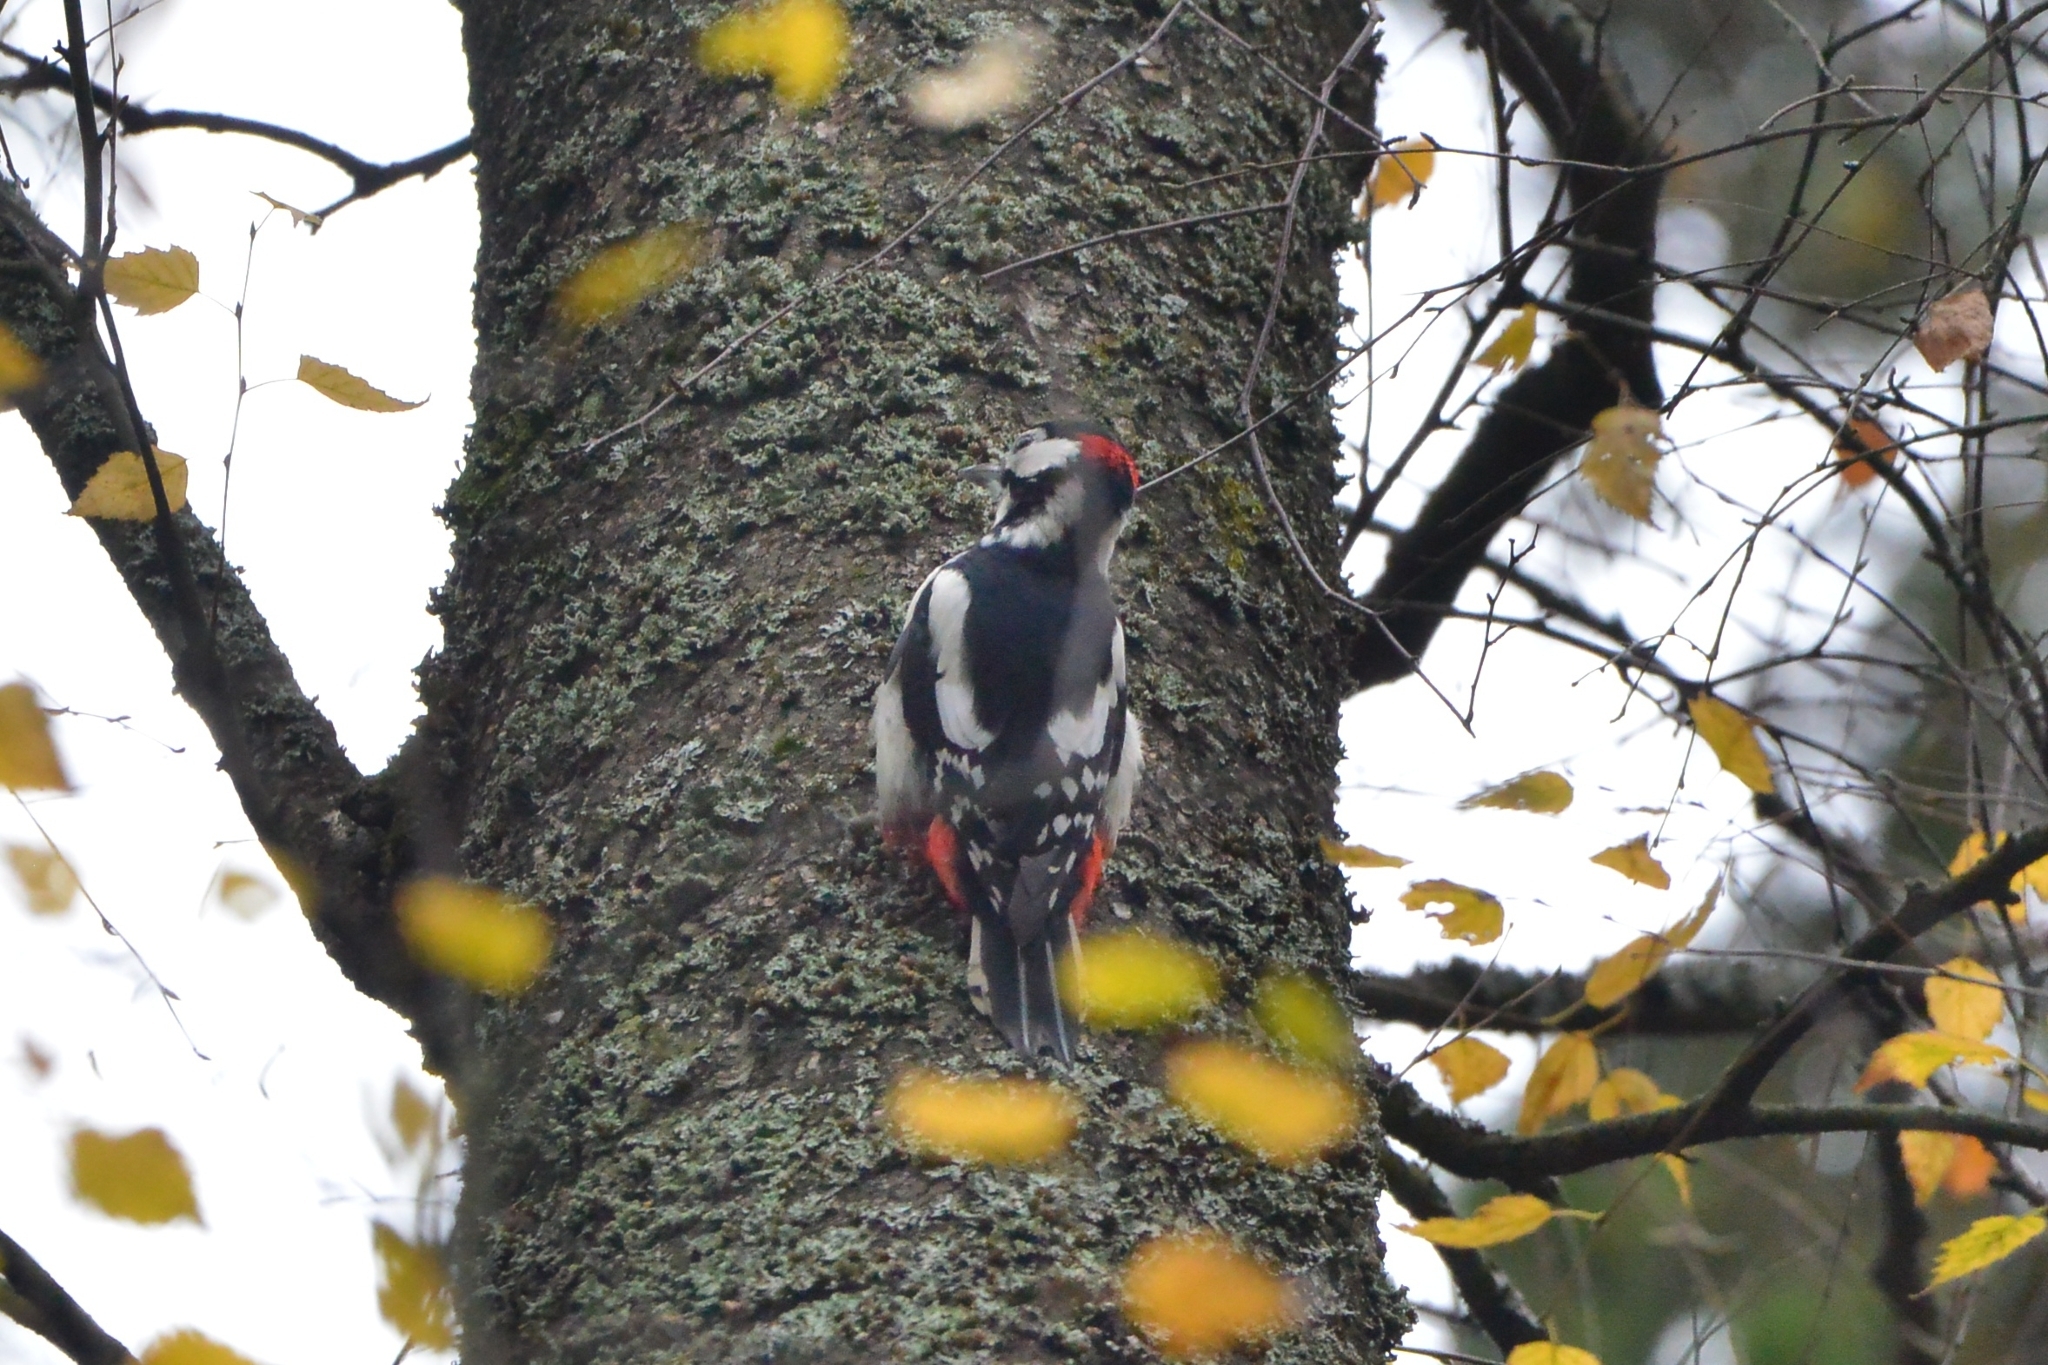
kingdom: Animalia
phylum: Chordata
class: Aves
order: Piciformes
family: Picidae
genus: Dendrocopos
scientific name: Dendrocopos major
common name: Great spotted woodpecker
